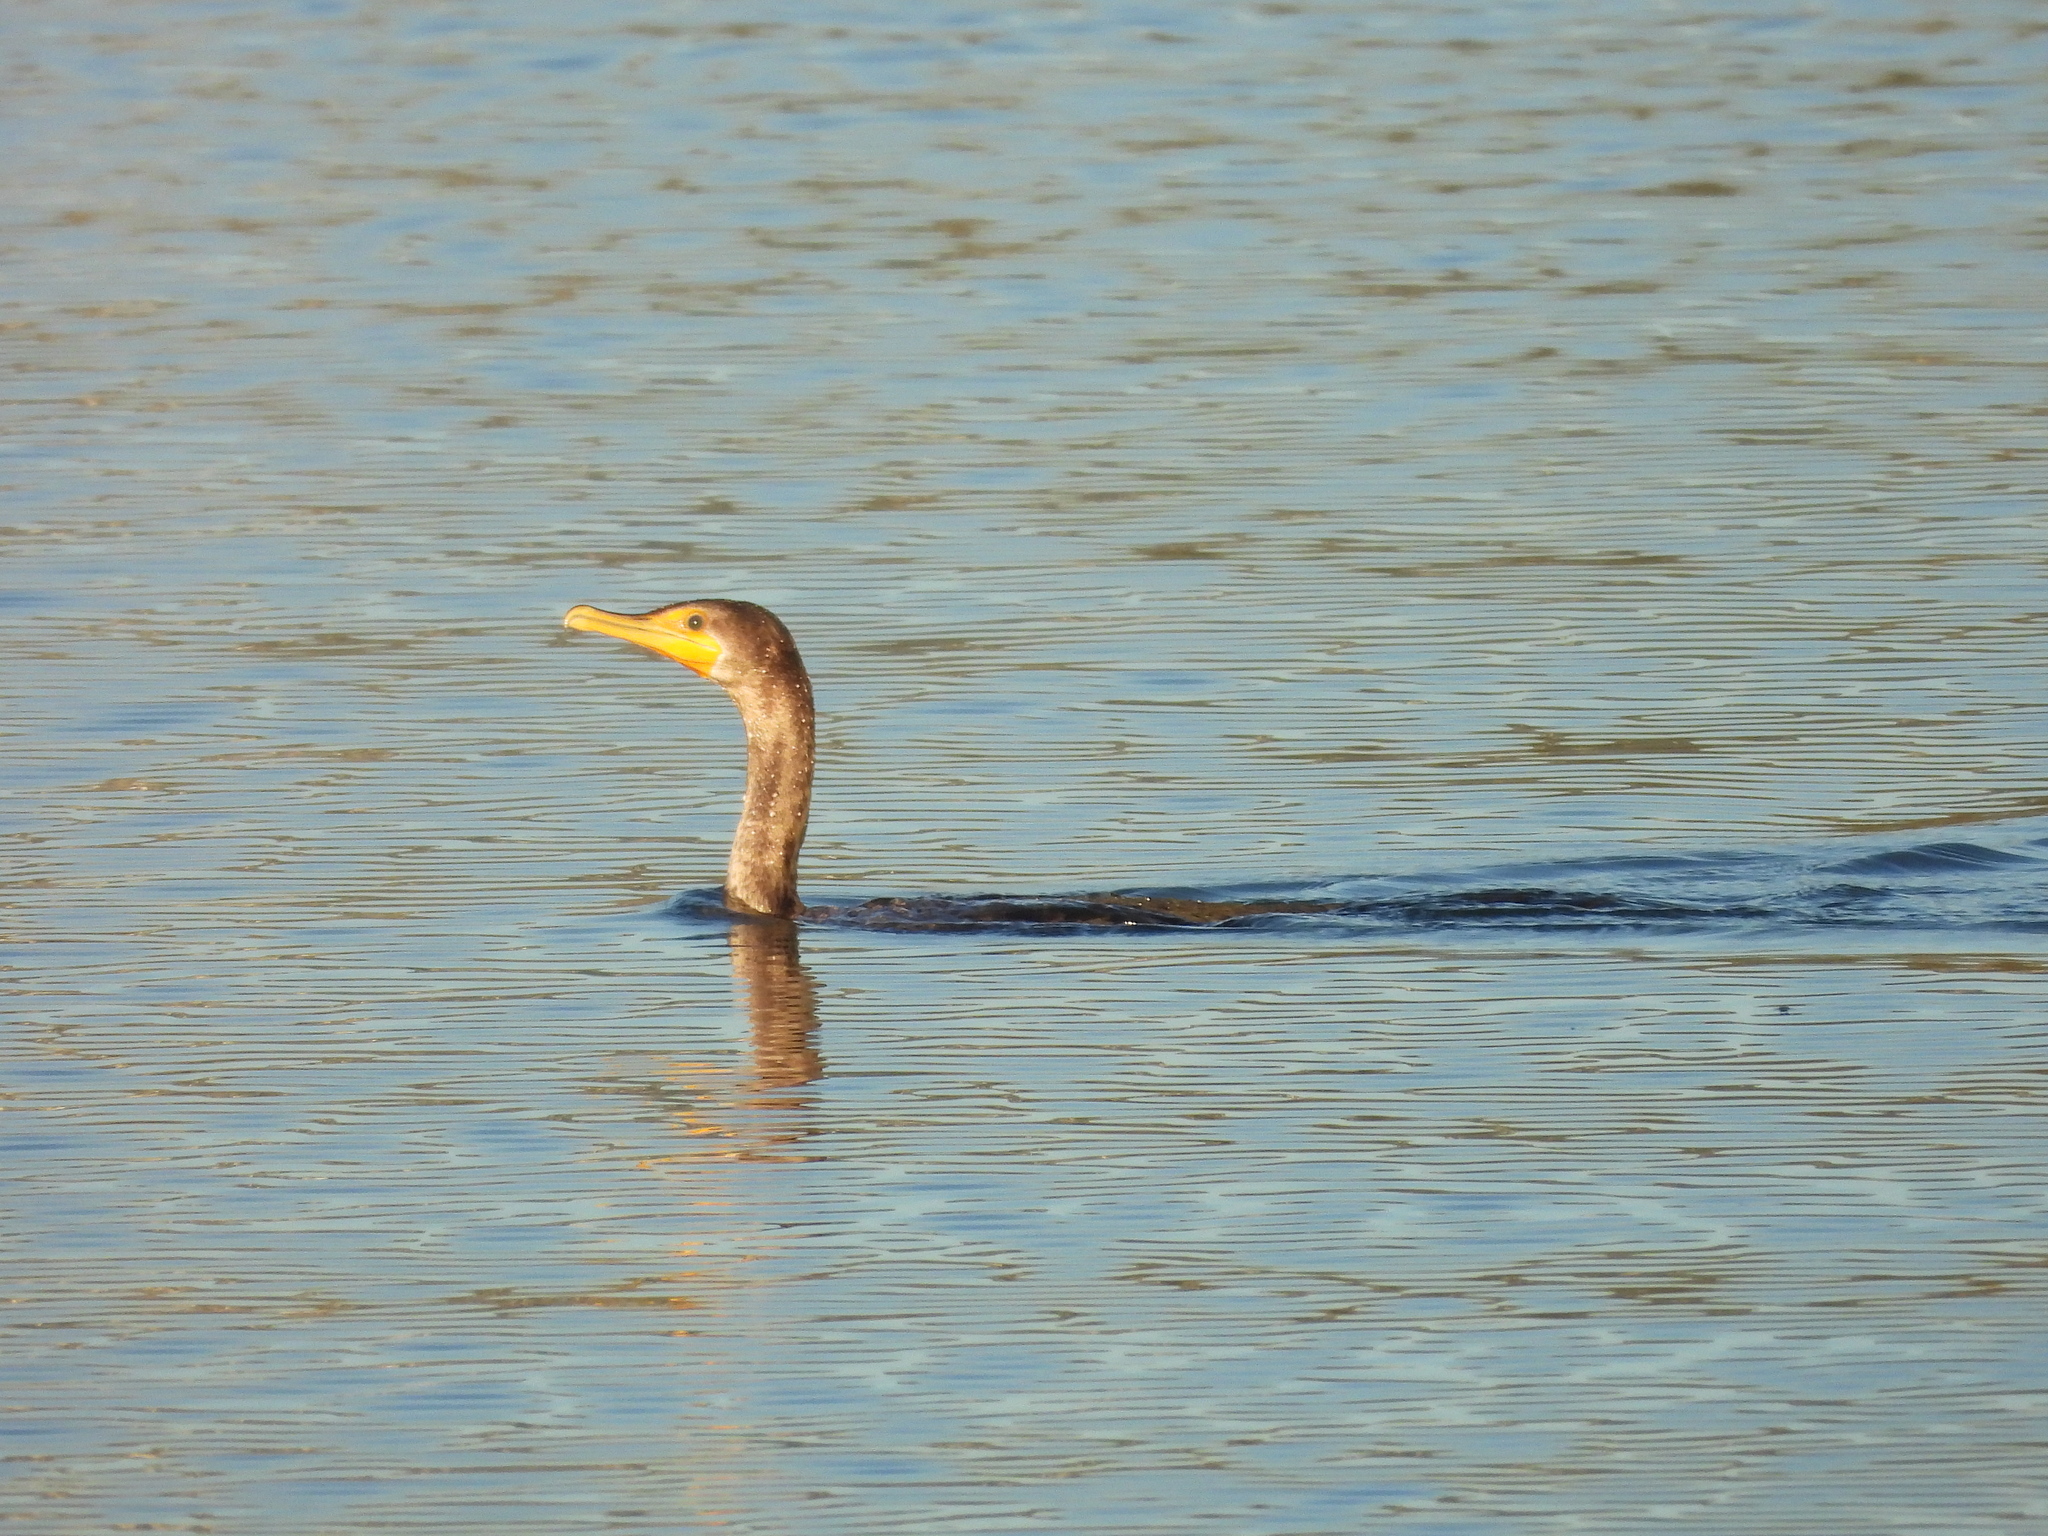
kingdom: Animalia
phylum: Chordata
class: Aves
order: Suliformes
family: Phalacrocoracidae
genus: Phalacrocorax
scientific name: Phalacrocorax auritus
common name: Double-crested cormorant
